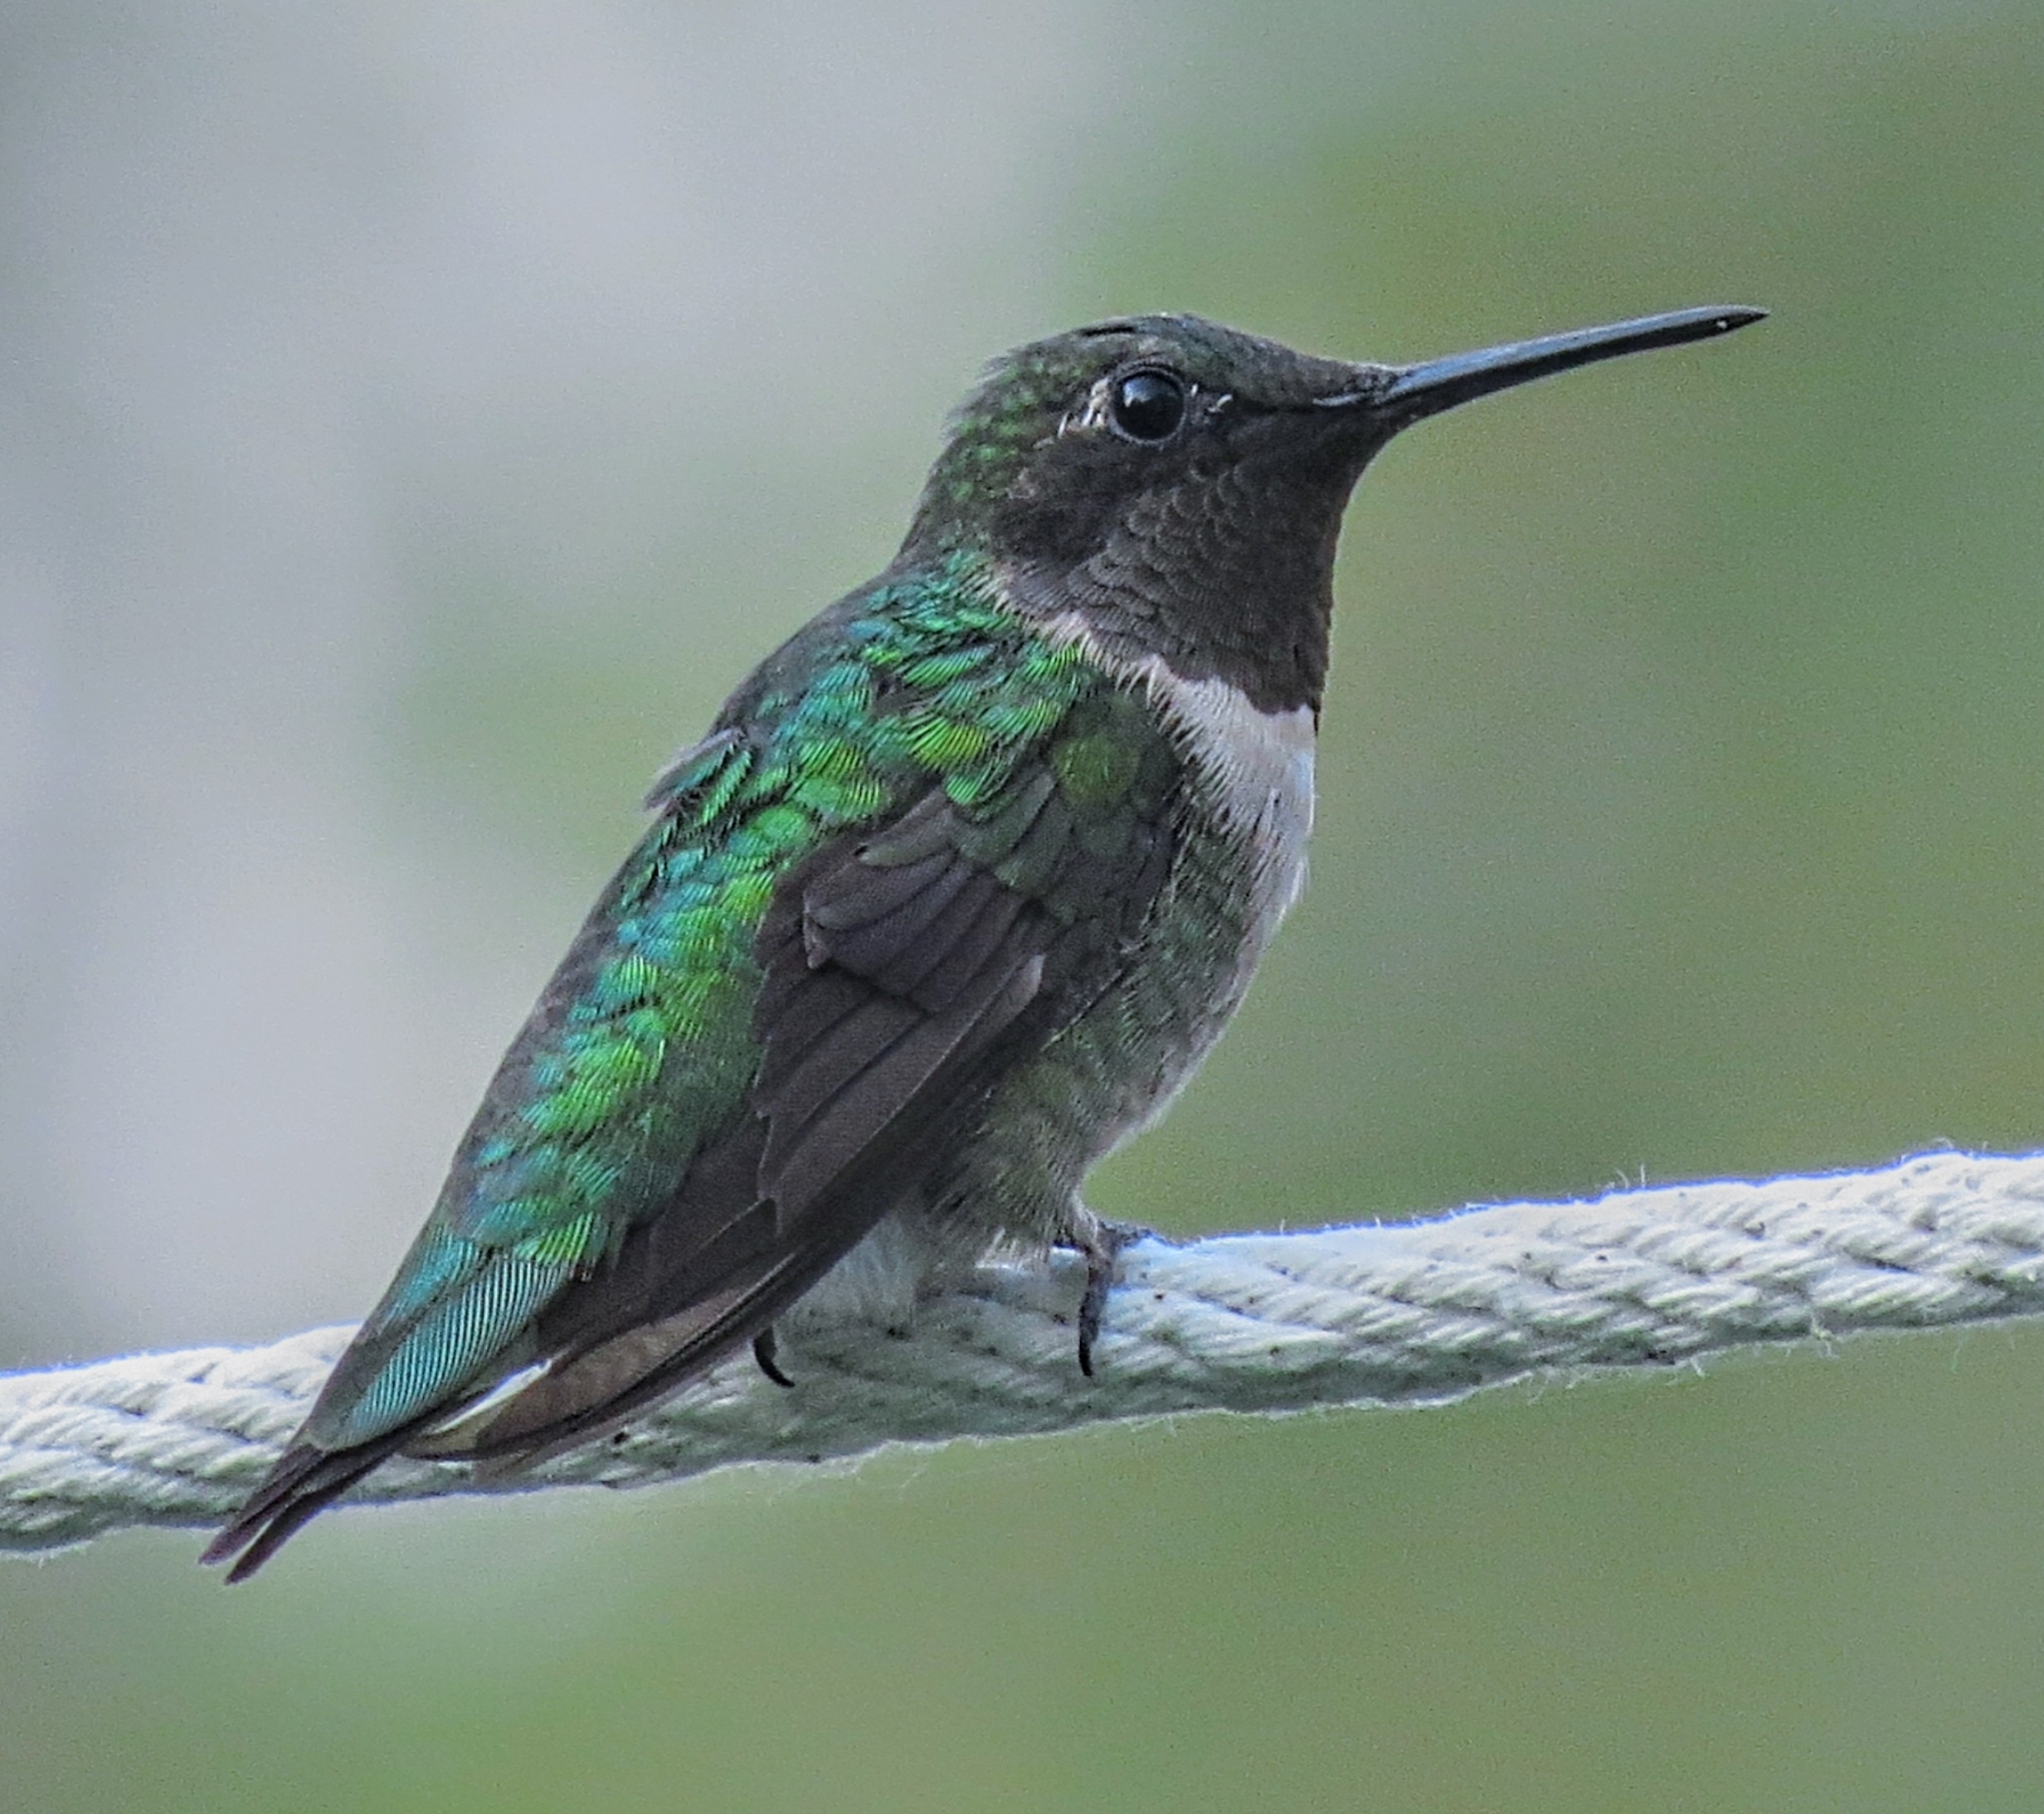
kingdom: Animalia
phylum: Chordata
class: Aves
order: Apodiformes
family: Trochilidae
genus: Archilochus
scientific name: Archilochus colubris
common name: Ruby-throated hummingbird
